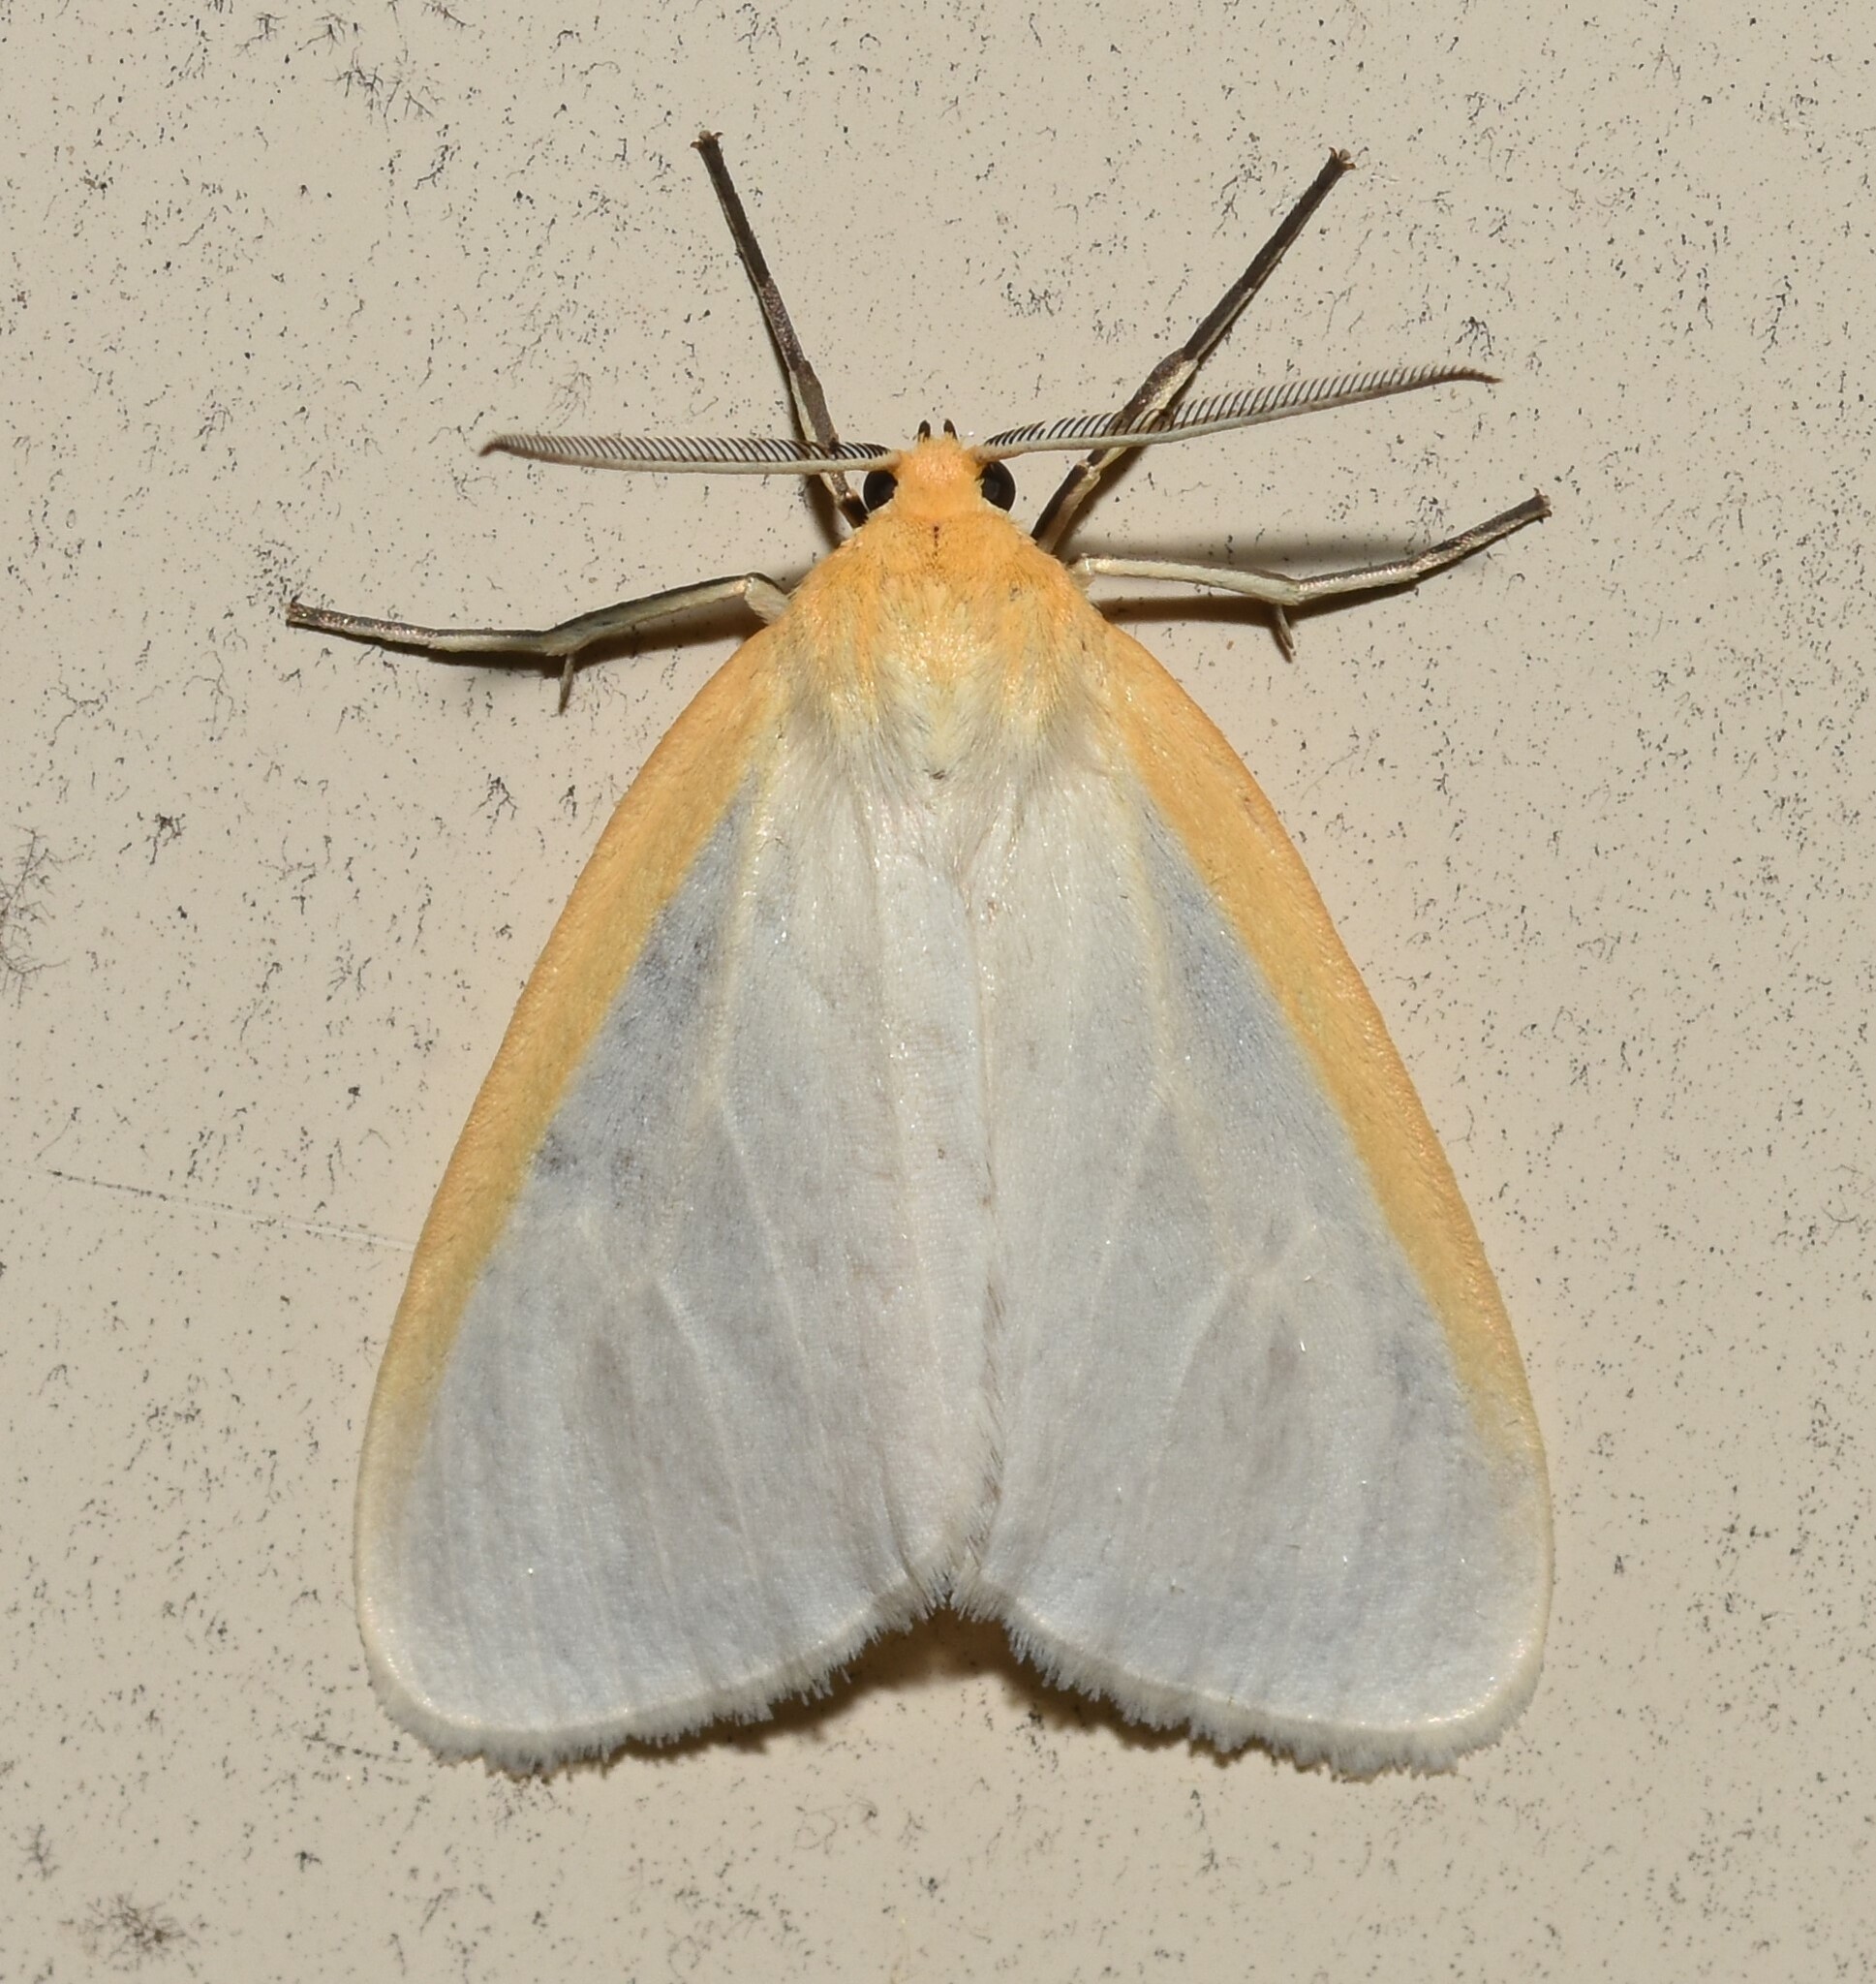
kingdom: Animalia
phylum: Arthropoda
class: Insecta
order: Lepidoptera
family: Erebidae
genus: Cycnia
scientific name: Cycnia tenera
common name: Delicate cycnia moth
